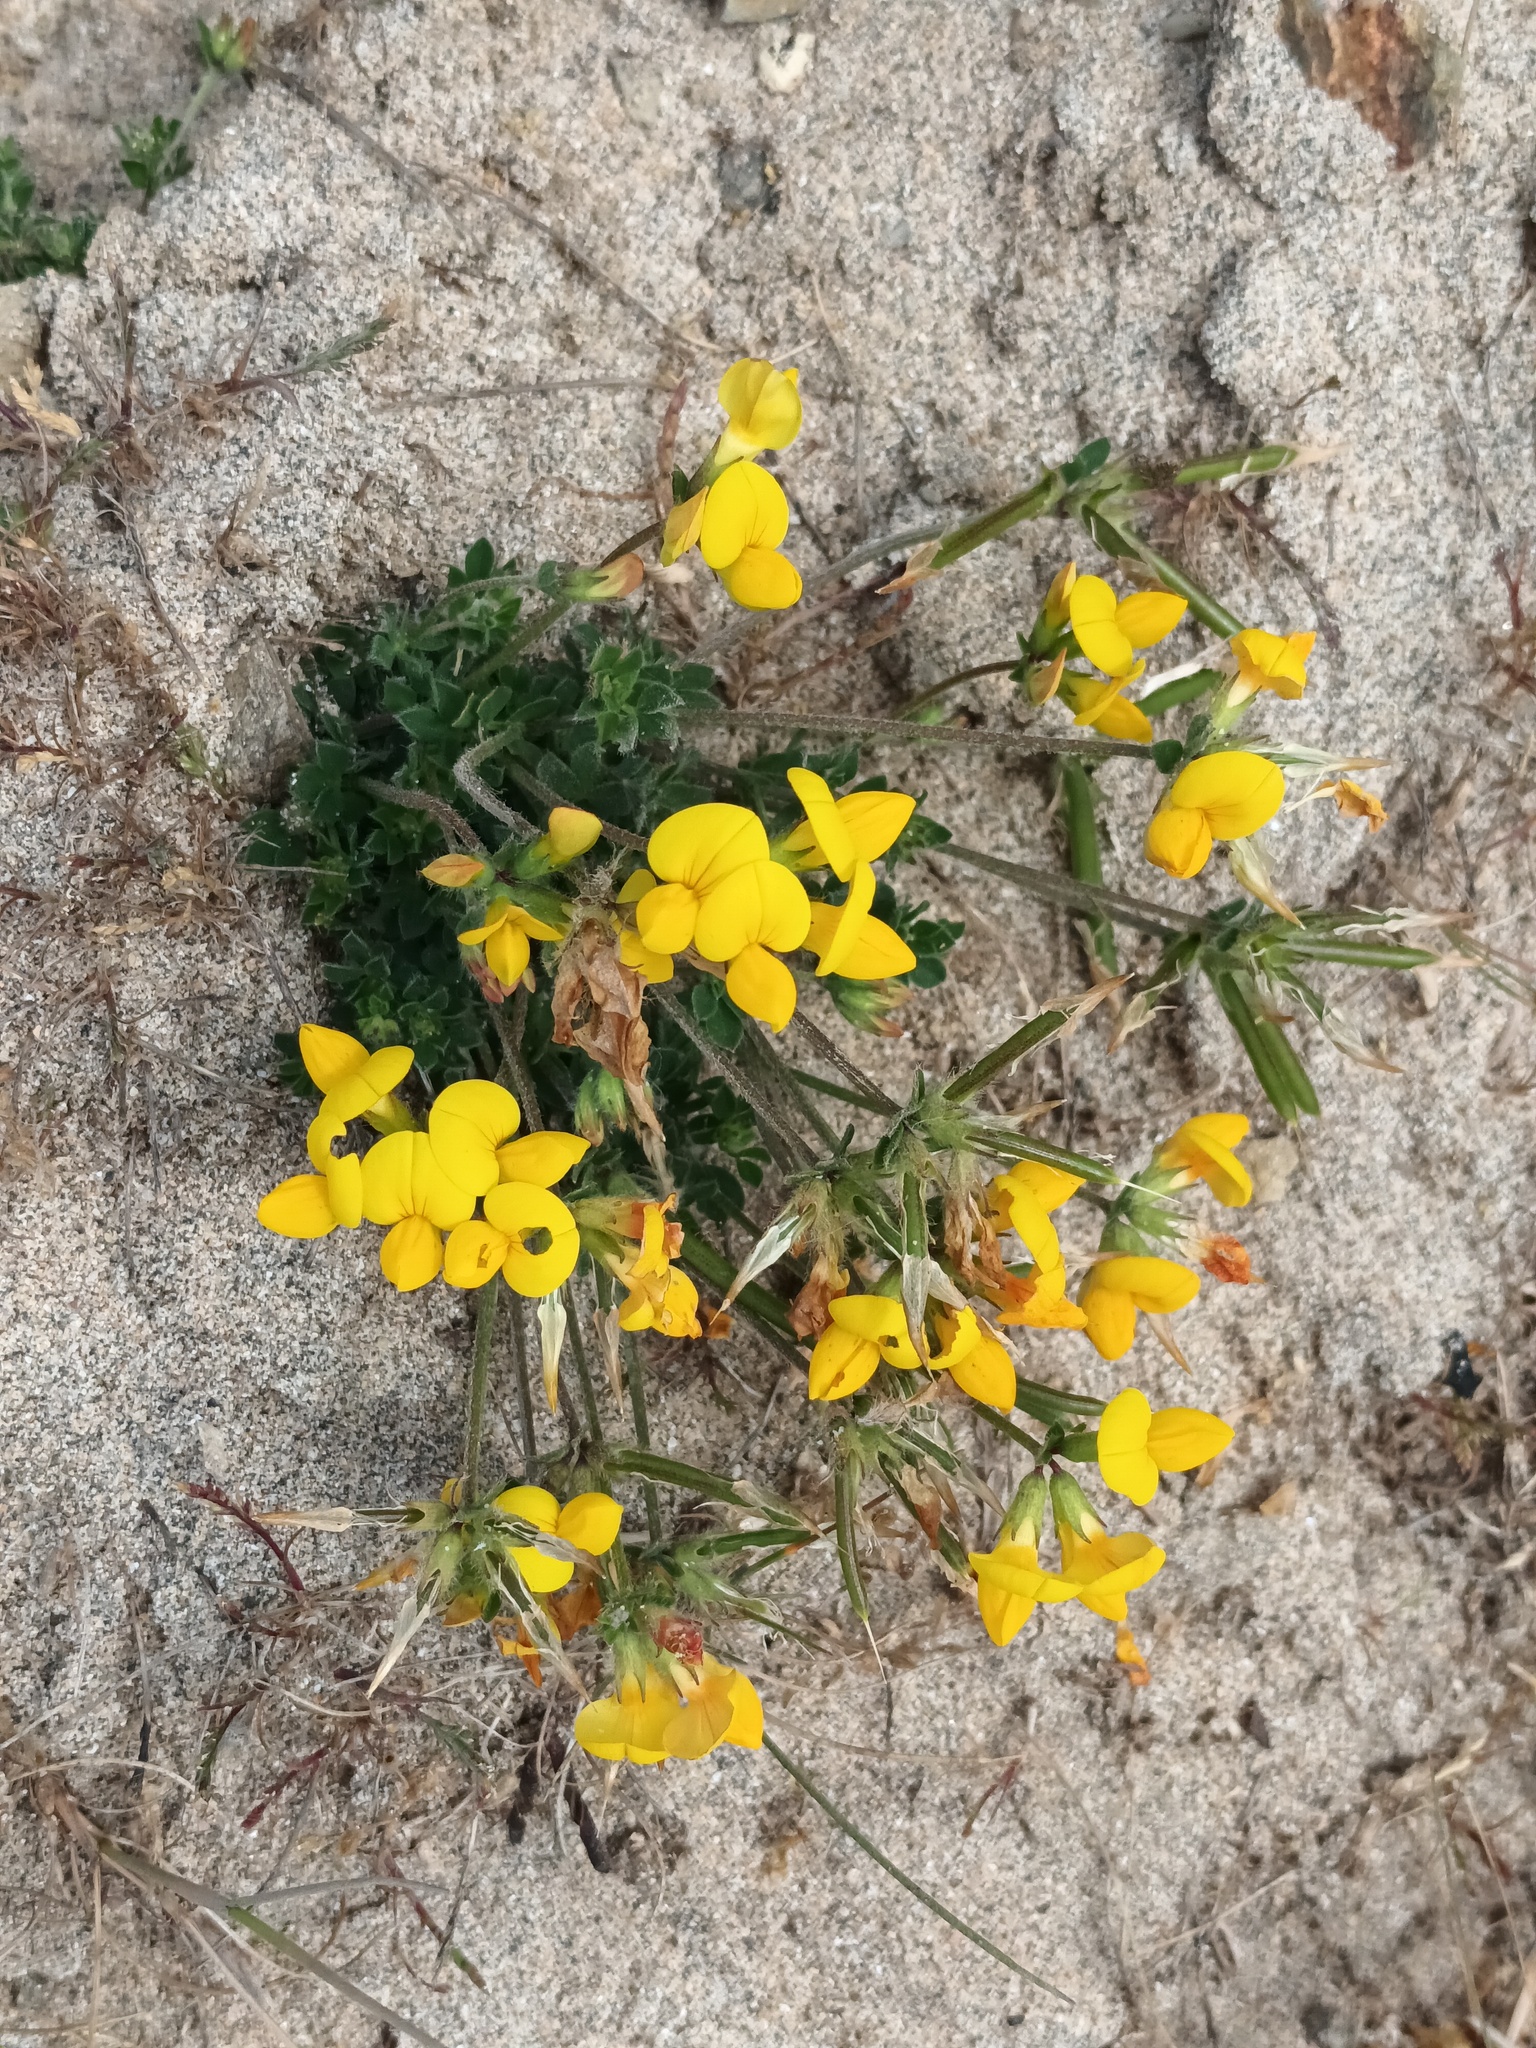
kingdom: Plantae
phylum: Tracheophyta
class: Magnoliopsida
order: Fabales
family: Fabaceae
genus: Lotus
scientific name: Lotus corniculatus
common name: Common bird's-foot-trefoil
